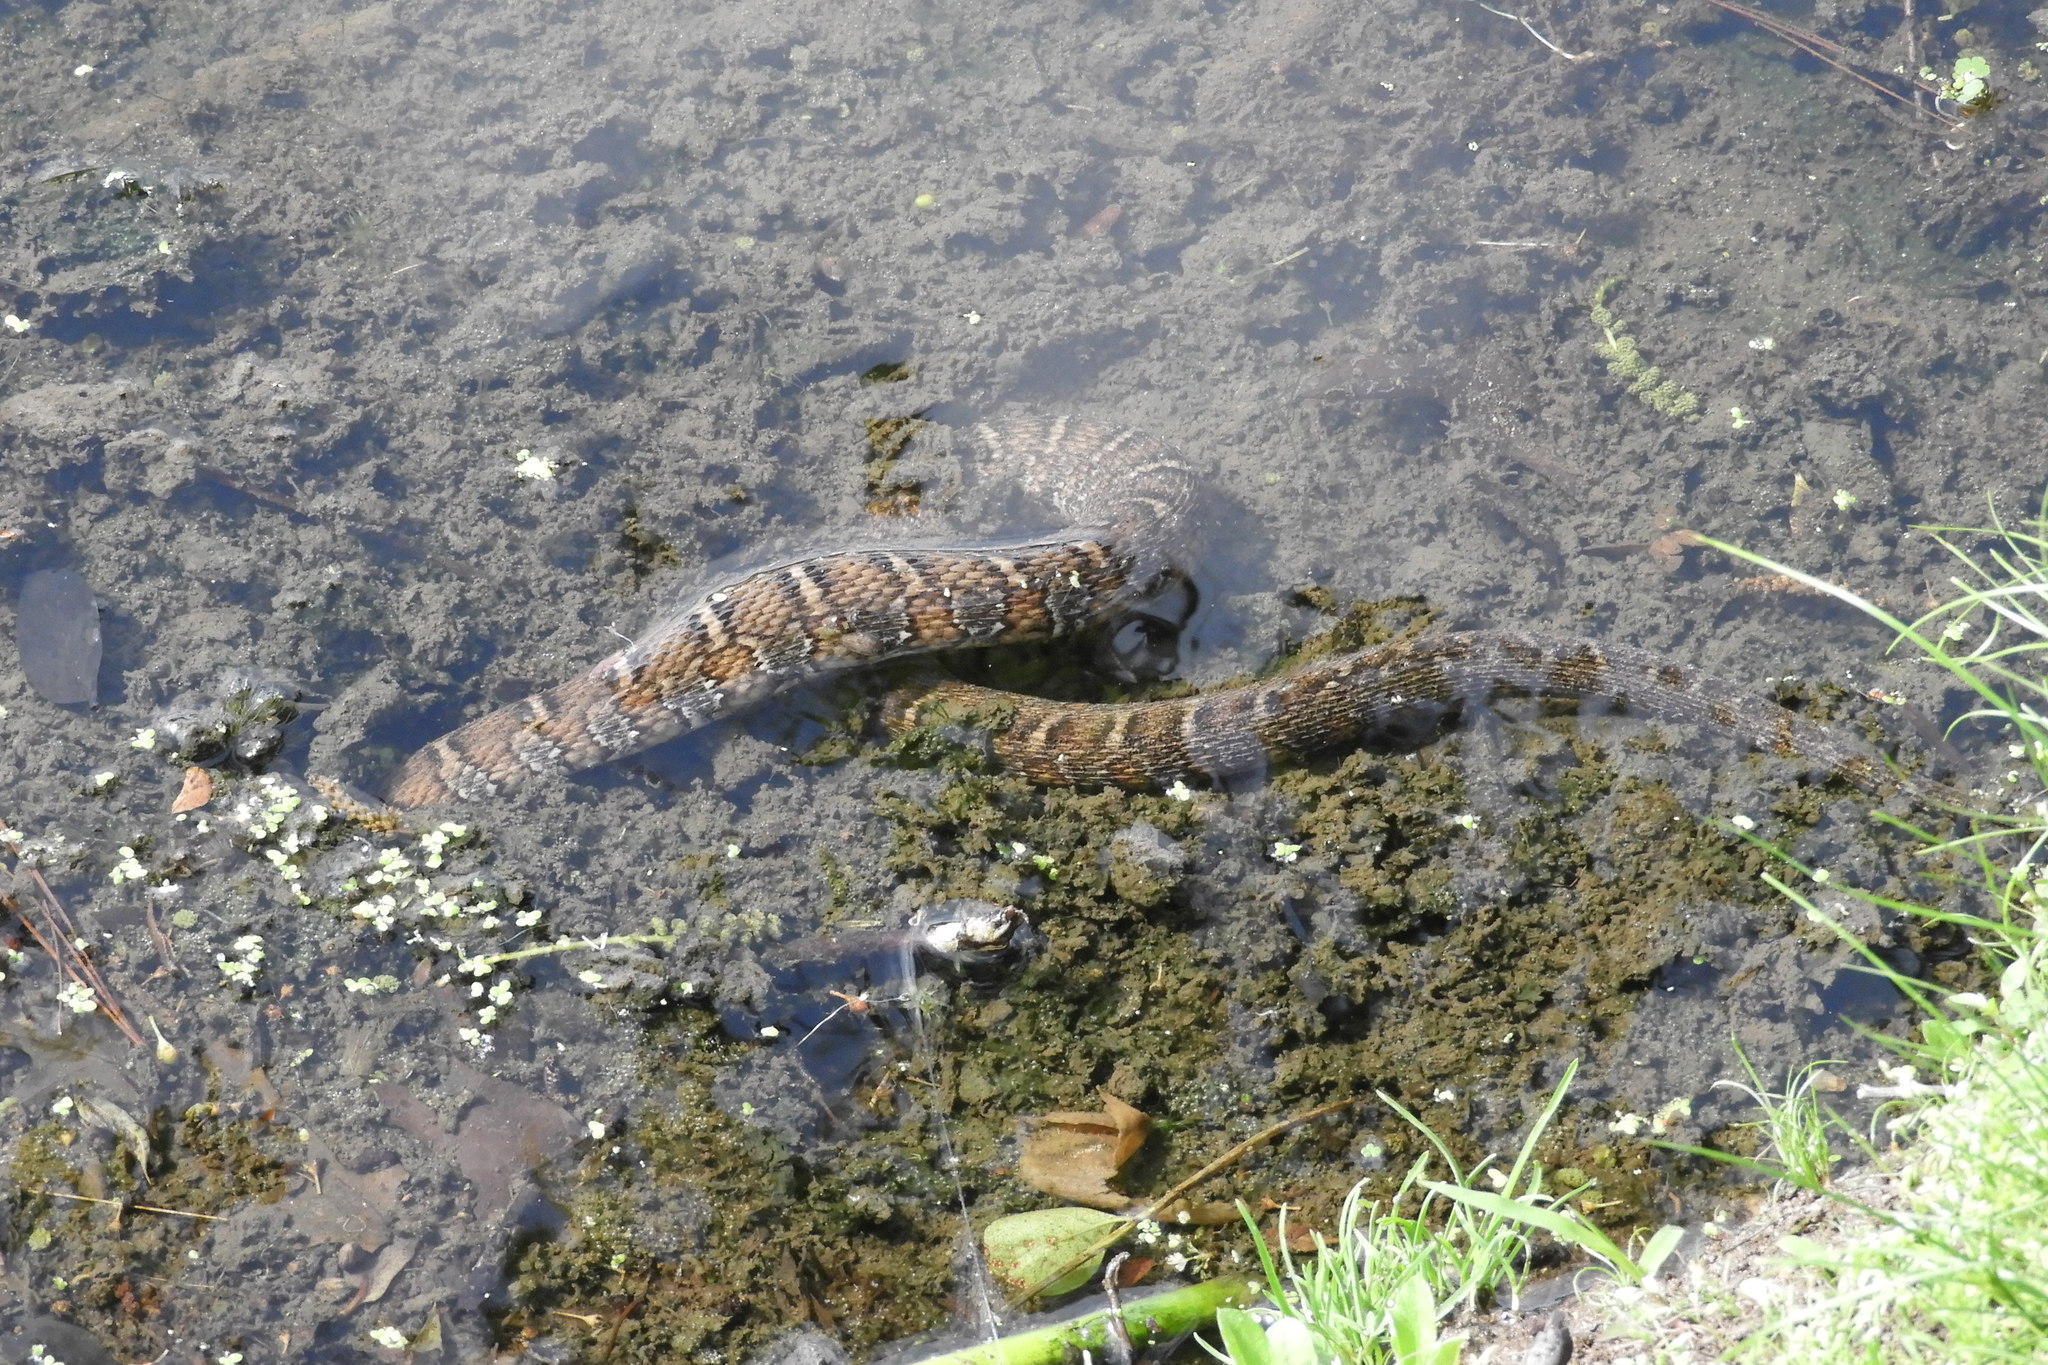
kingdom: Animalia
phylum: Chordata
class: Squamata
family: Colubridae
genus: Nerodia
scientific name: Nerodia sipedon
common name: Northern water snake
